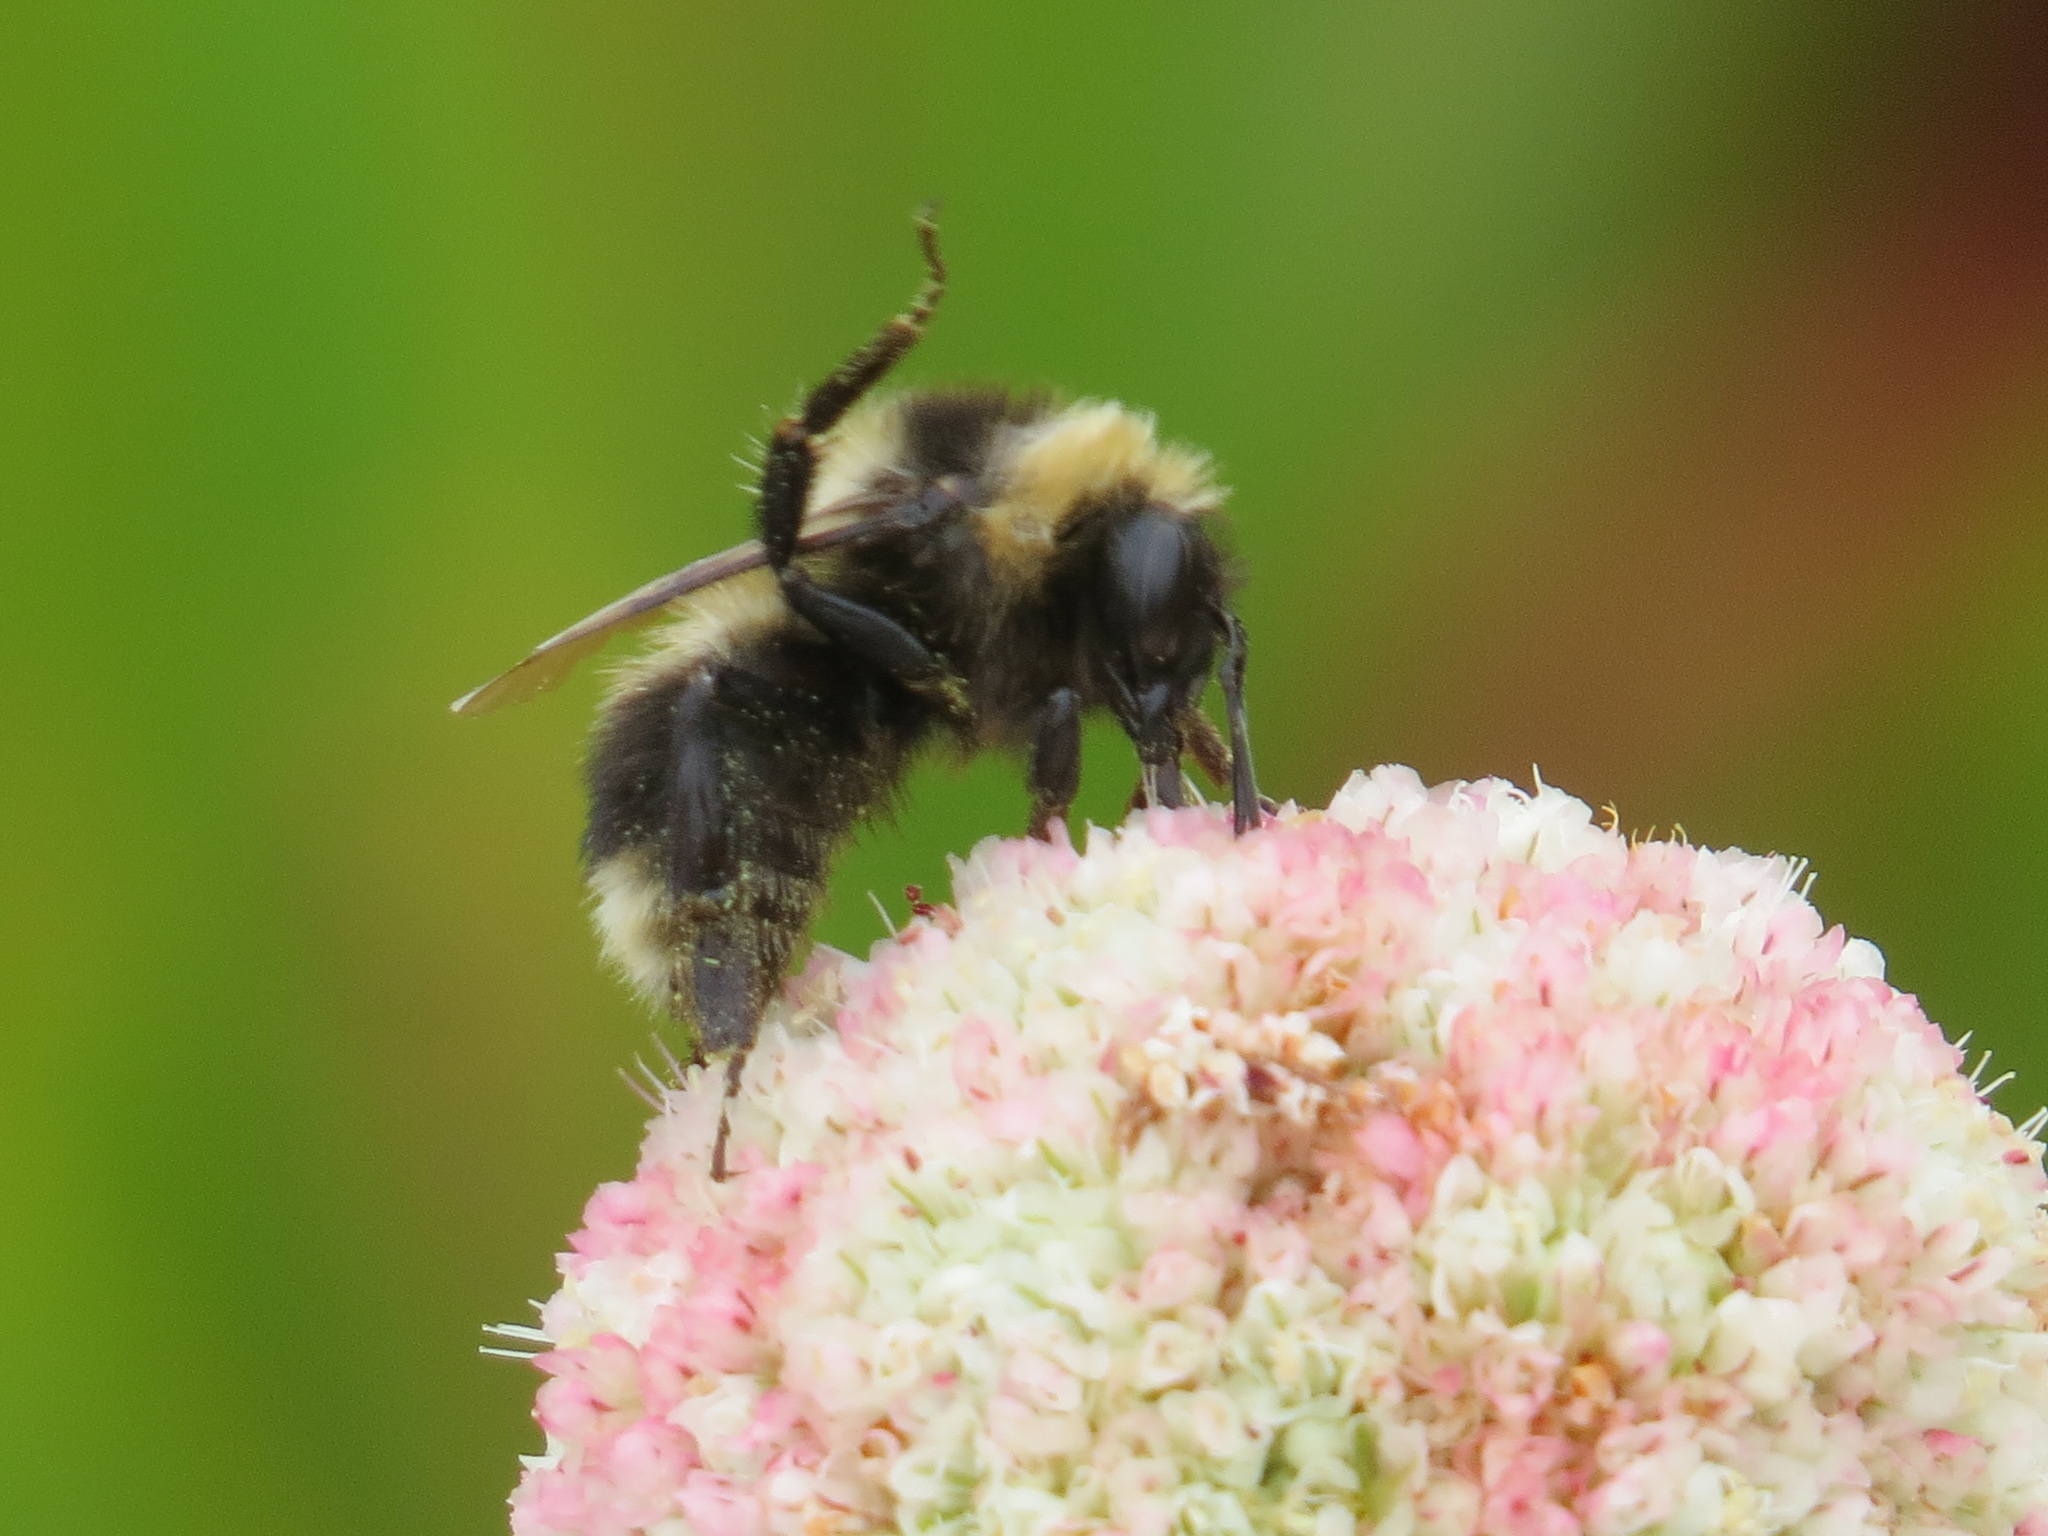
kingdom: Animalia
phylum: Arthropoda
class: Insecta
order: Hymenoptera
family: Apidae
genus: Bombus
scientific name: Bombus rufocinctus
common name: Red-belted bumble bee
